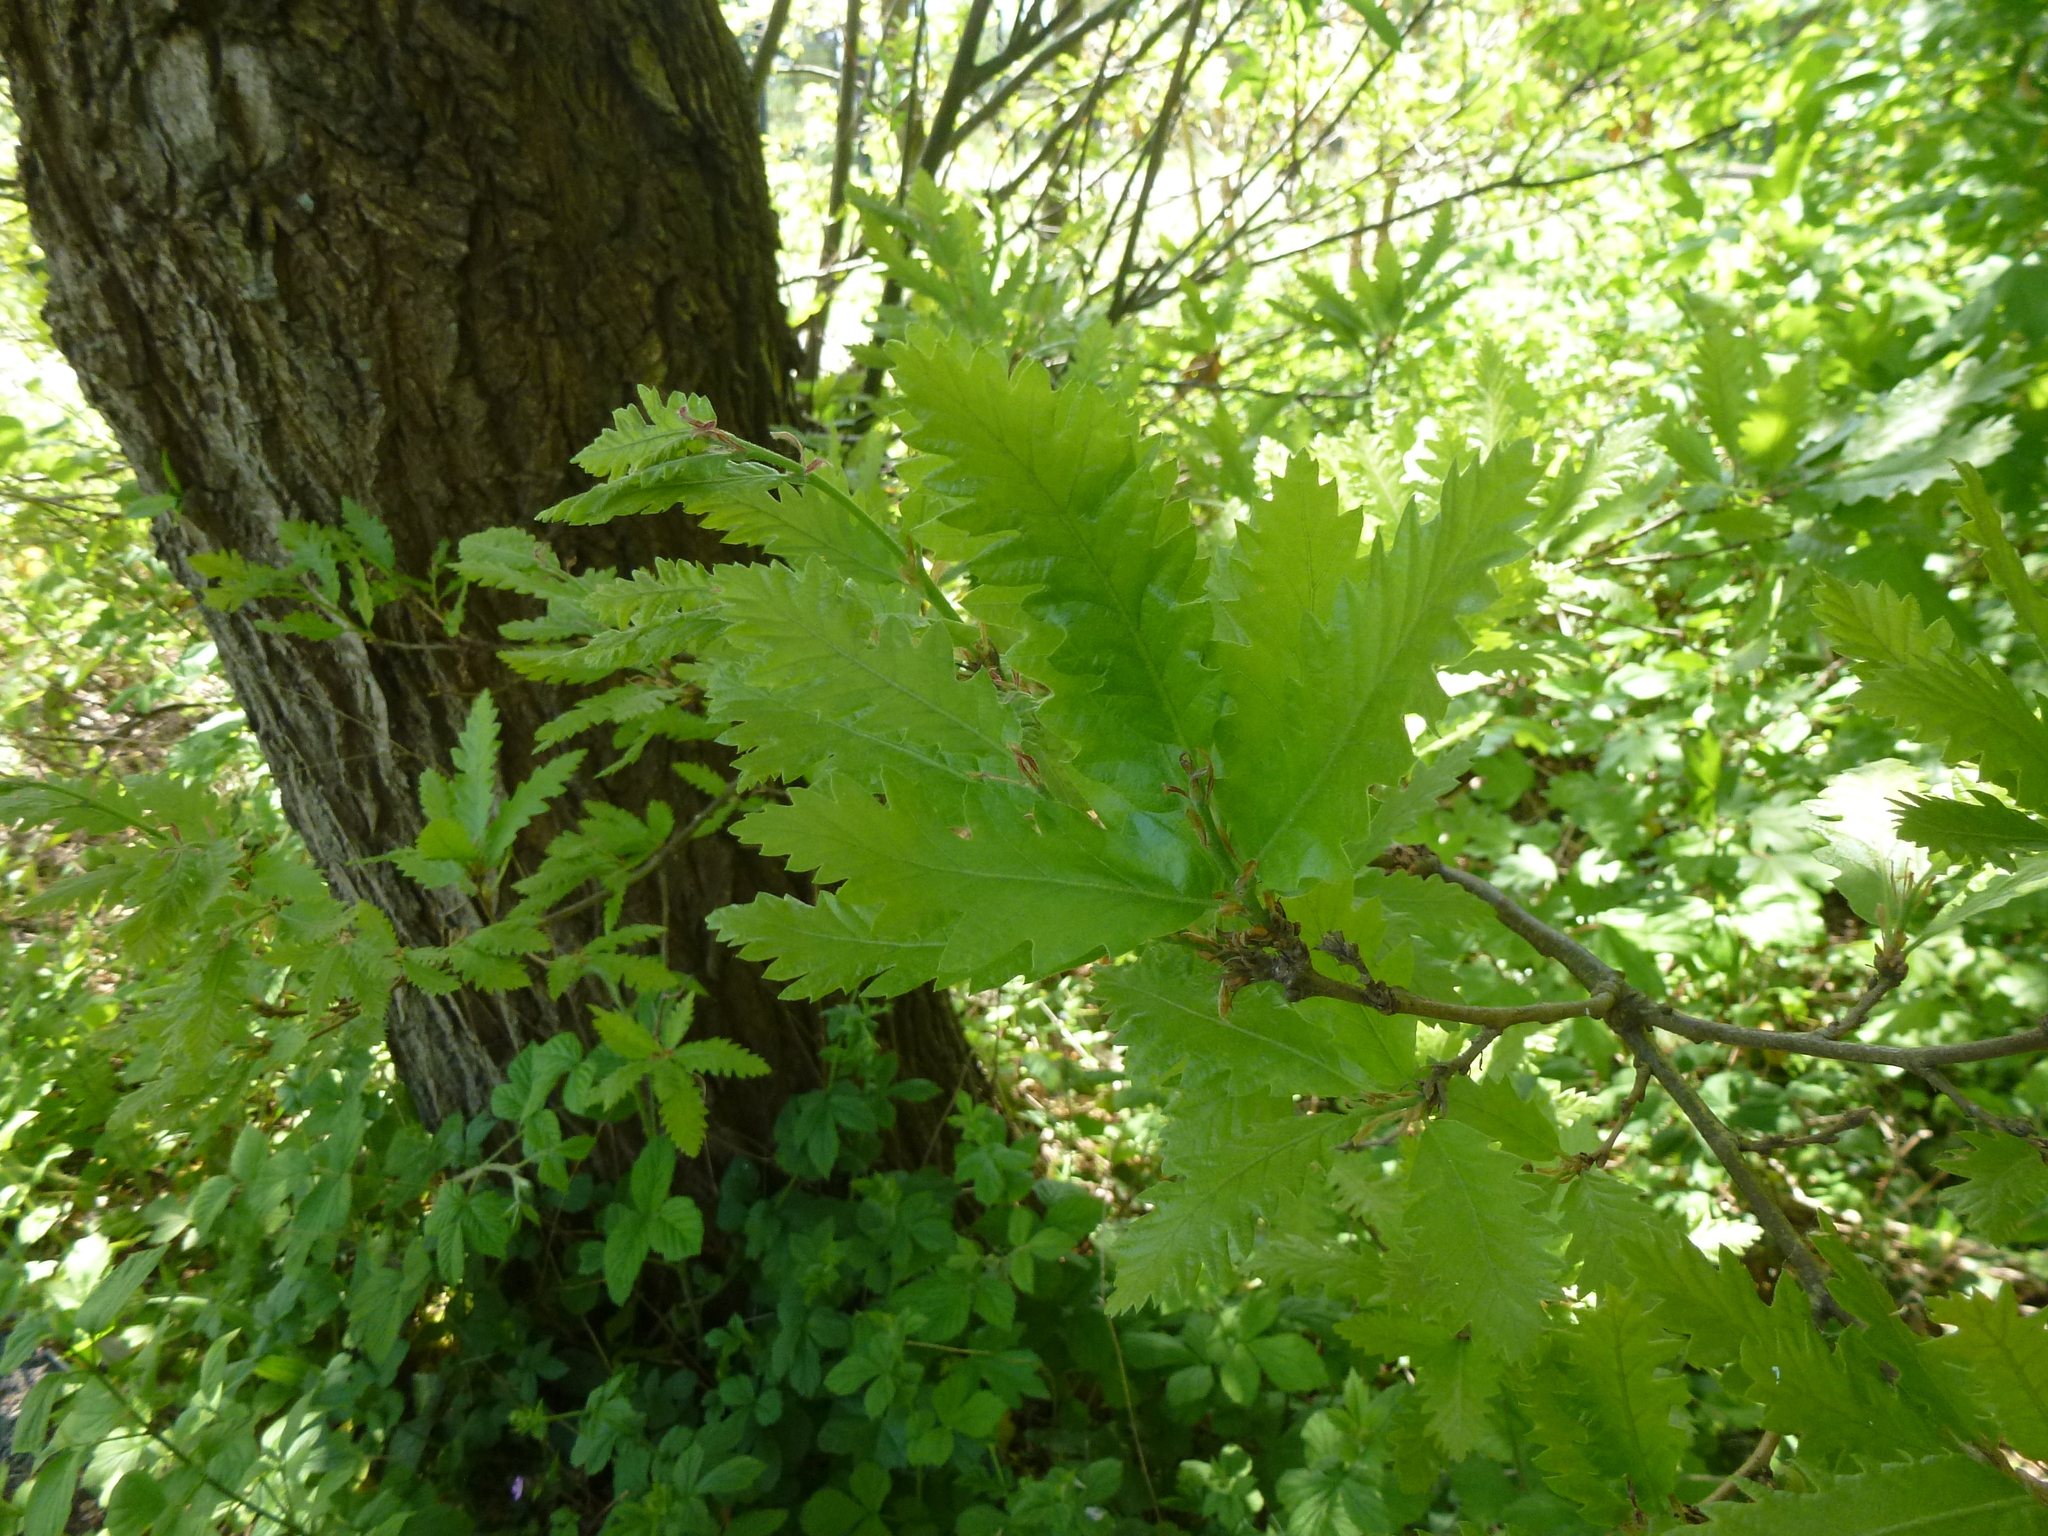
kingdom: Plantae
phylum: Tracheophyta
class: Magnoliopsida
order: Fagales
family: Fagaceae
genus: Quercus
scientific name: Quercus cerris
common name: Turkey oak
